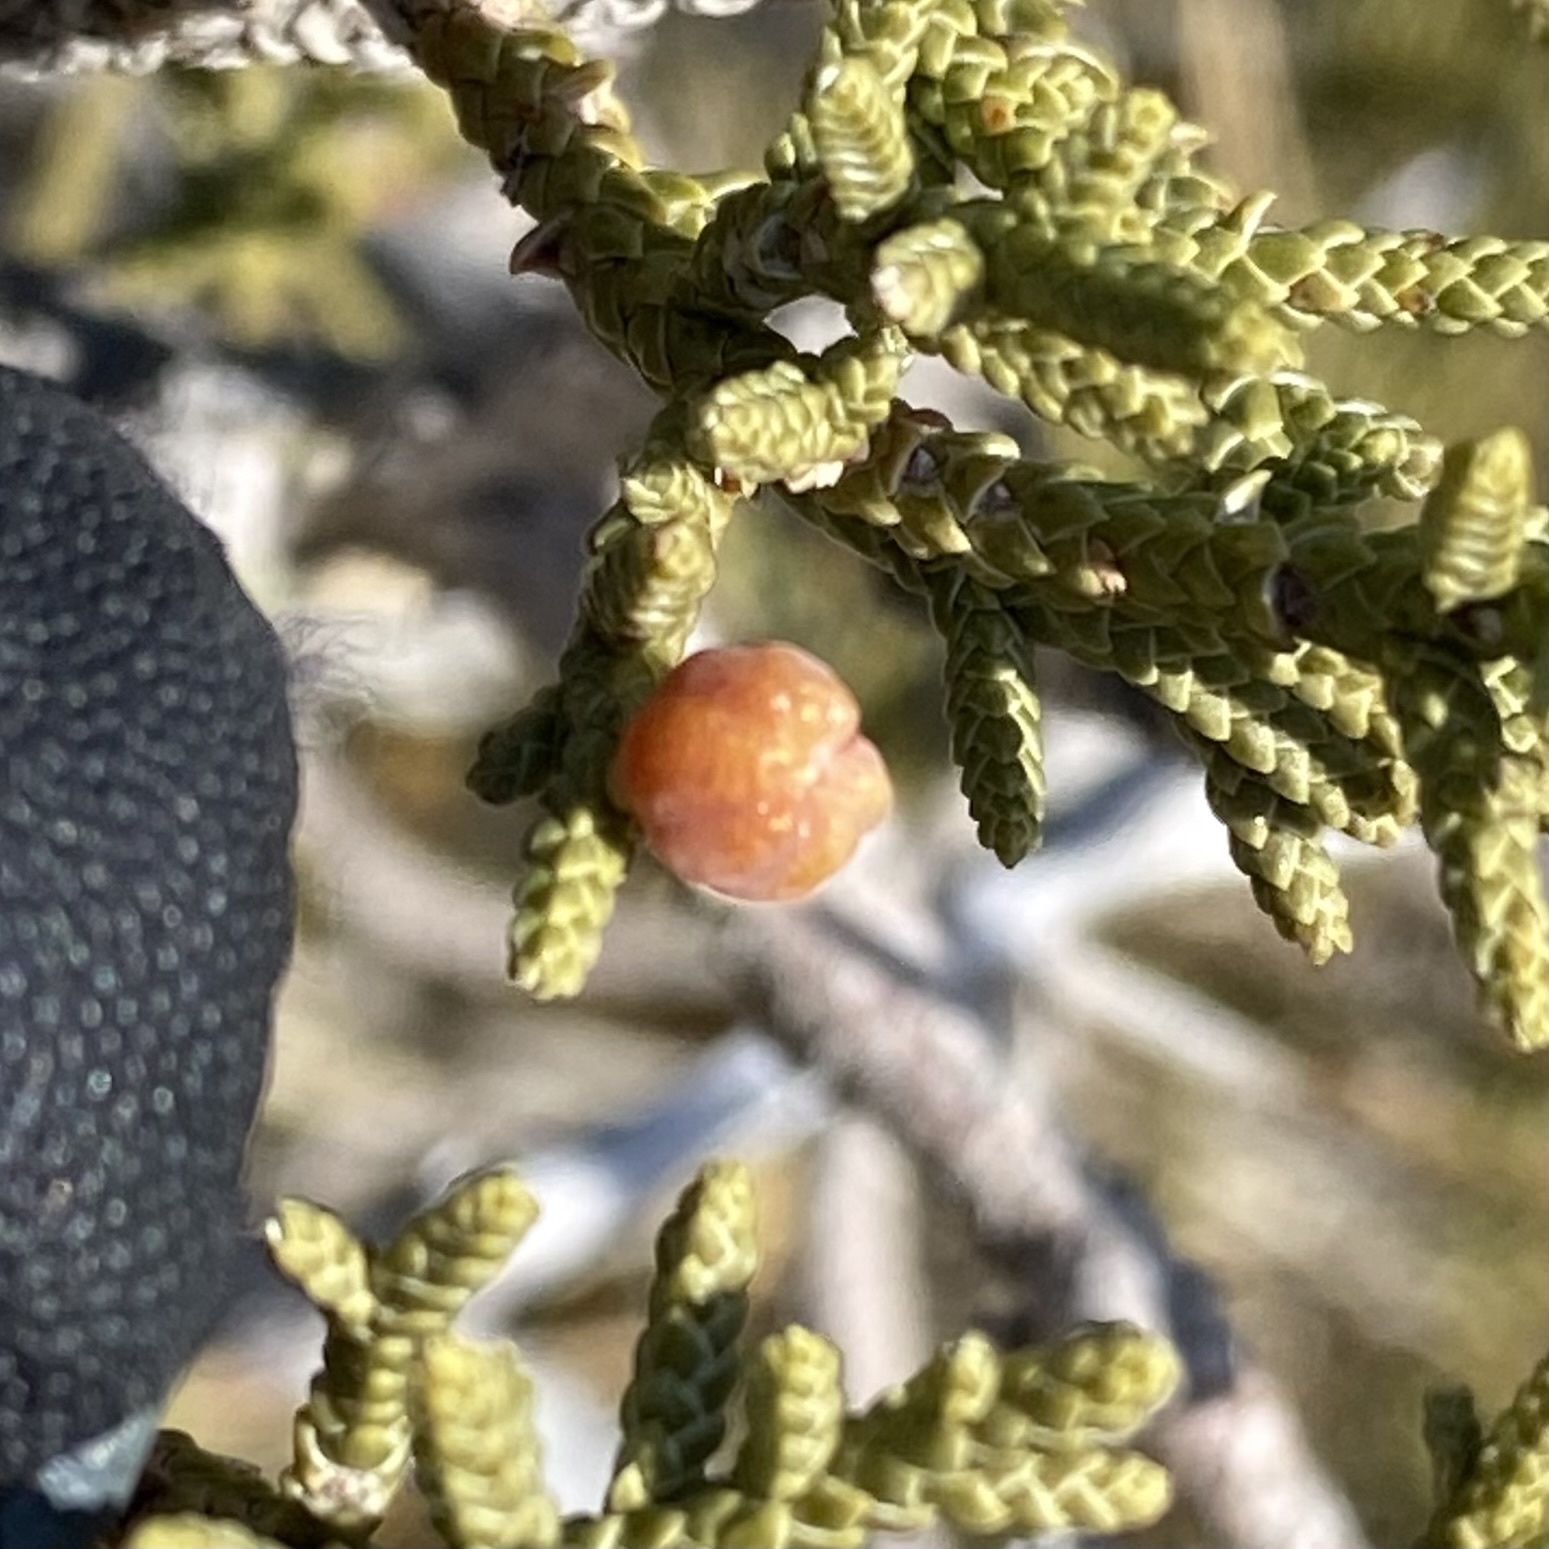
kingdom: Animalia
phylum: Arthropoda
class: Insecta
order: Diptera
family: Cecidomyiidae
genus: Walshomyia
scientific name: Walshomyia juniperina
